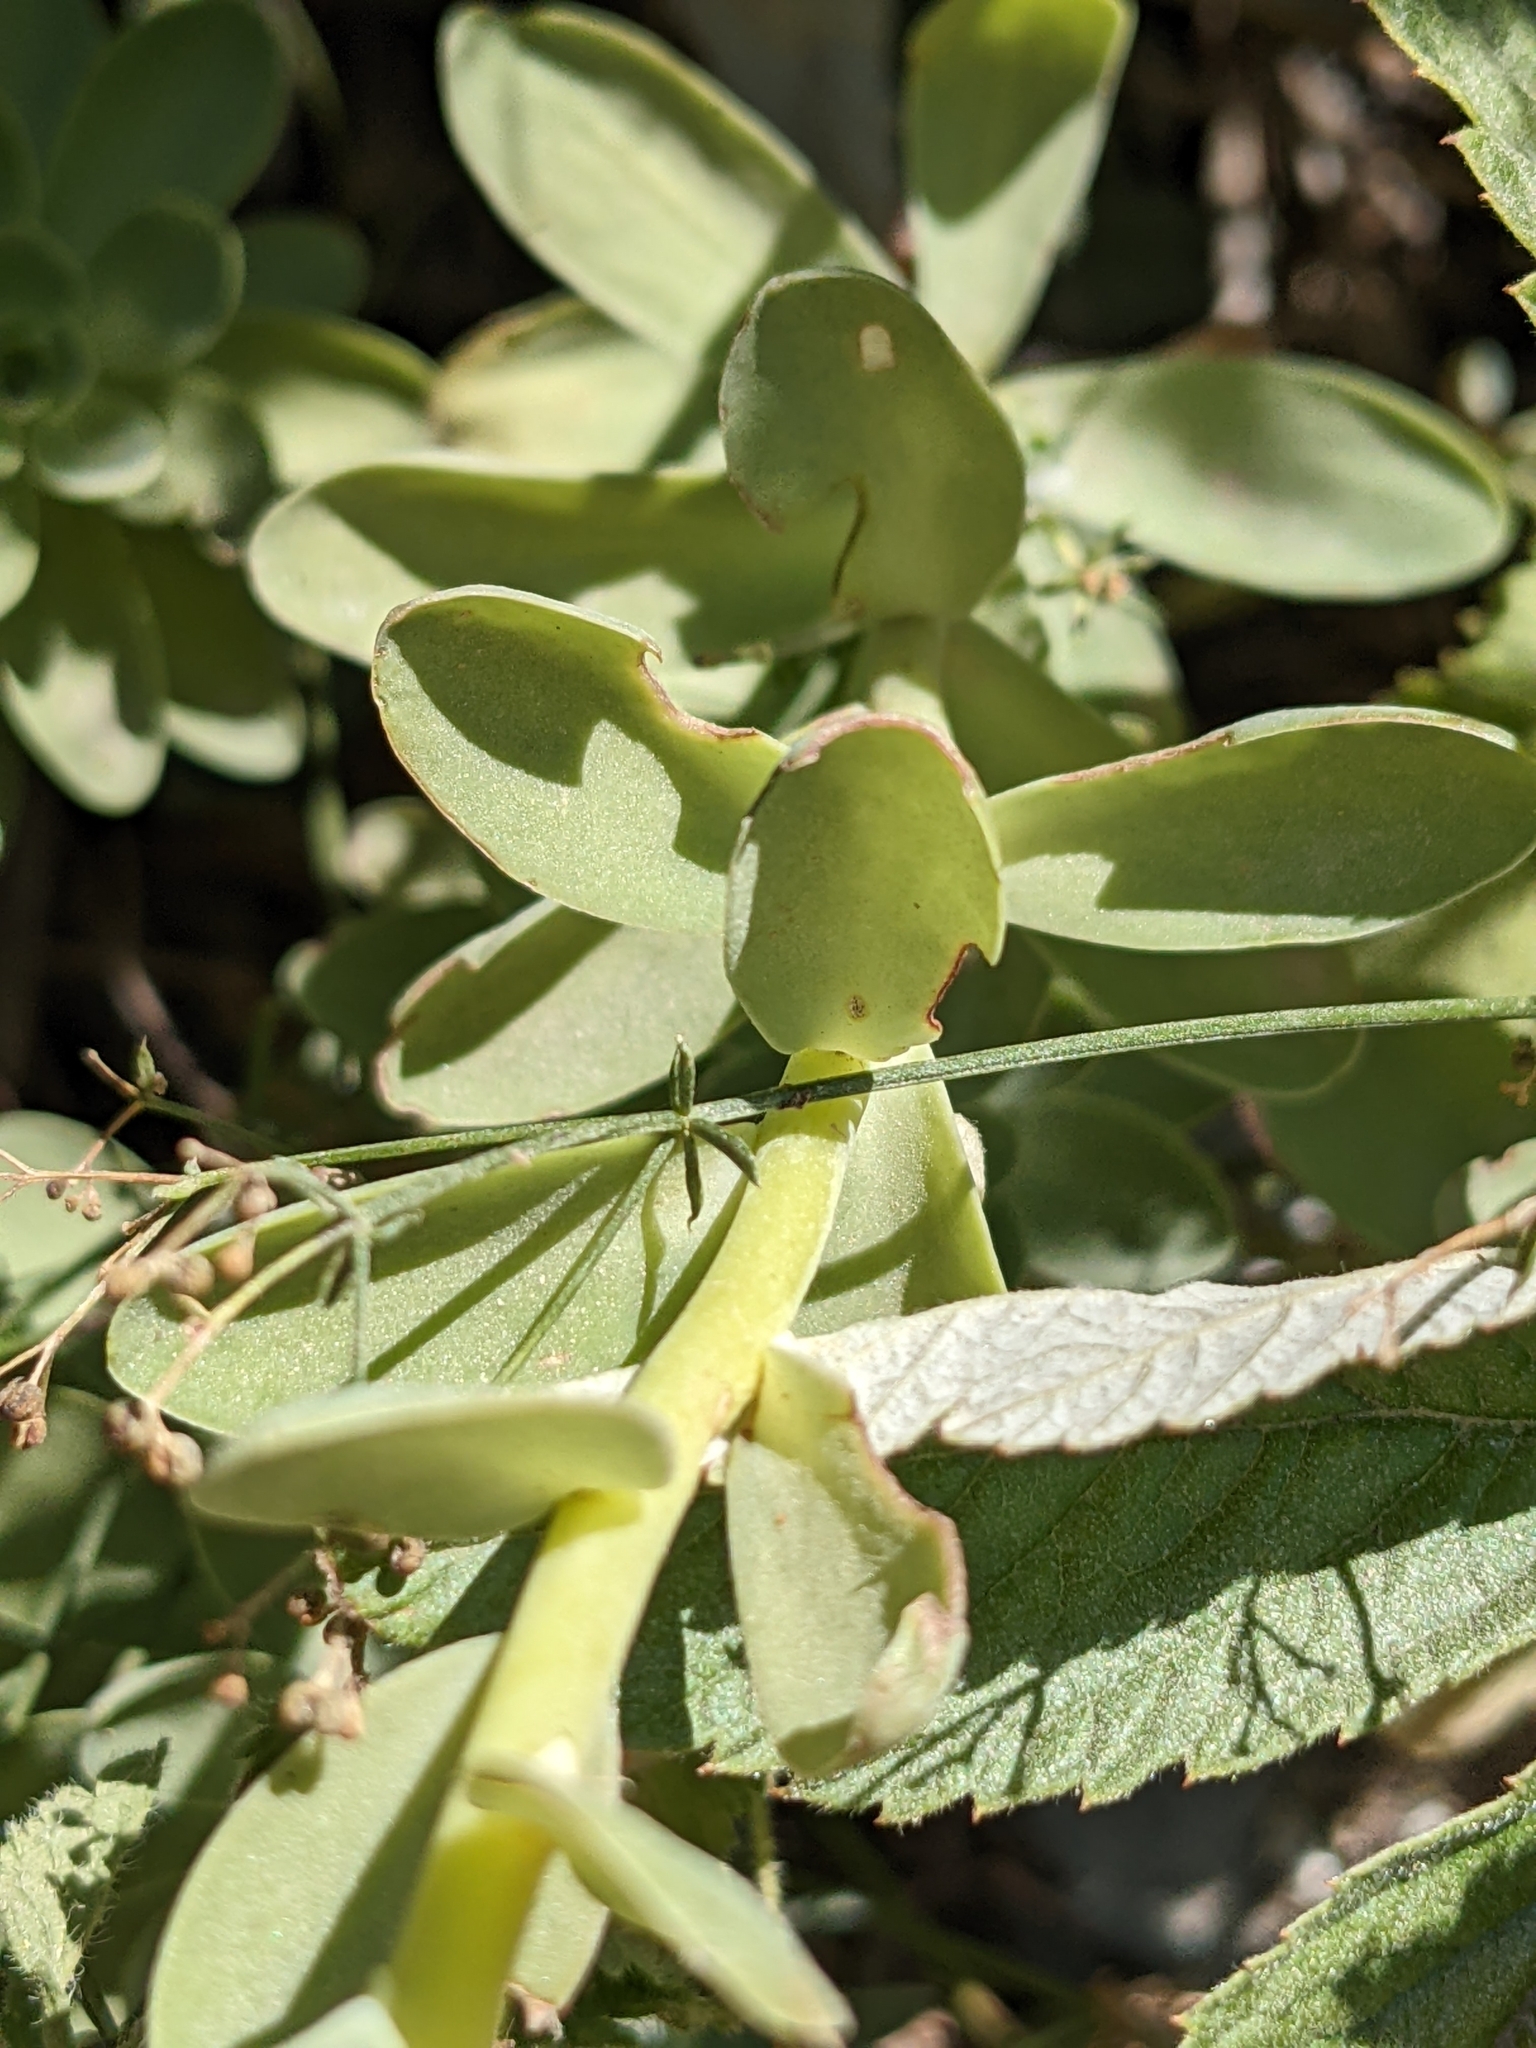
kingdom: Plantae
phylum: Tracheophyta
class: Magnoliopsida
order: Saxifragales
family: Crassulaceae
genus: Hylotelephium
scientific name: Hylotelephium anacampseros
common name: Love-restorer
